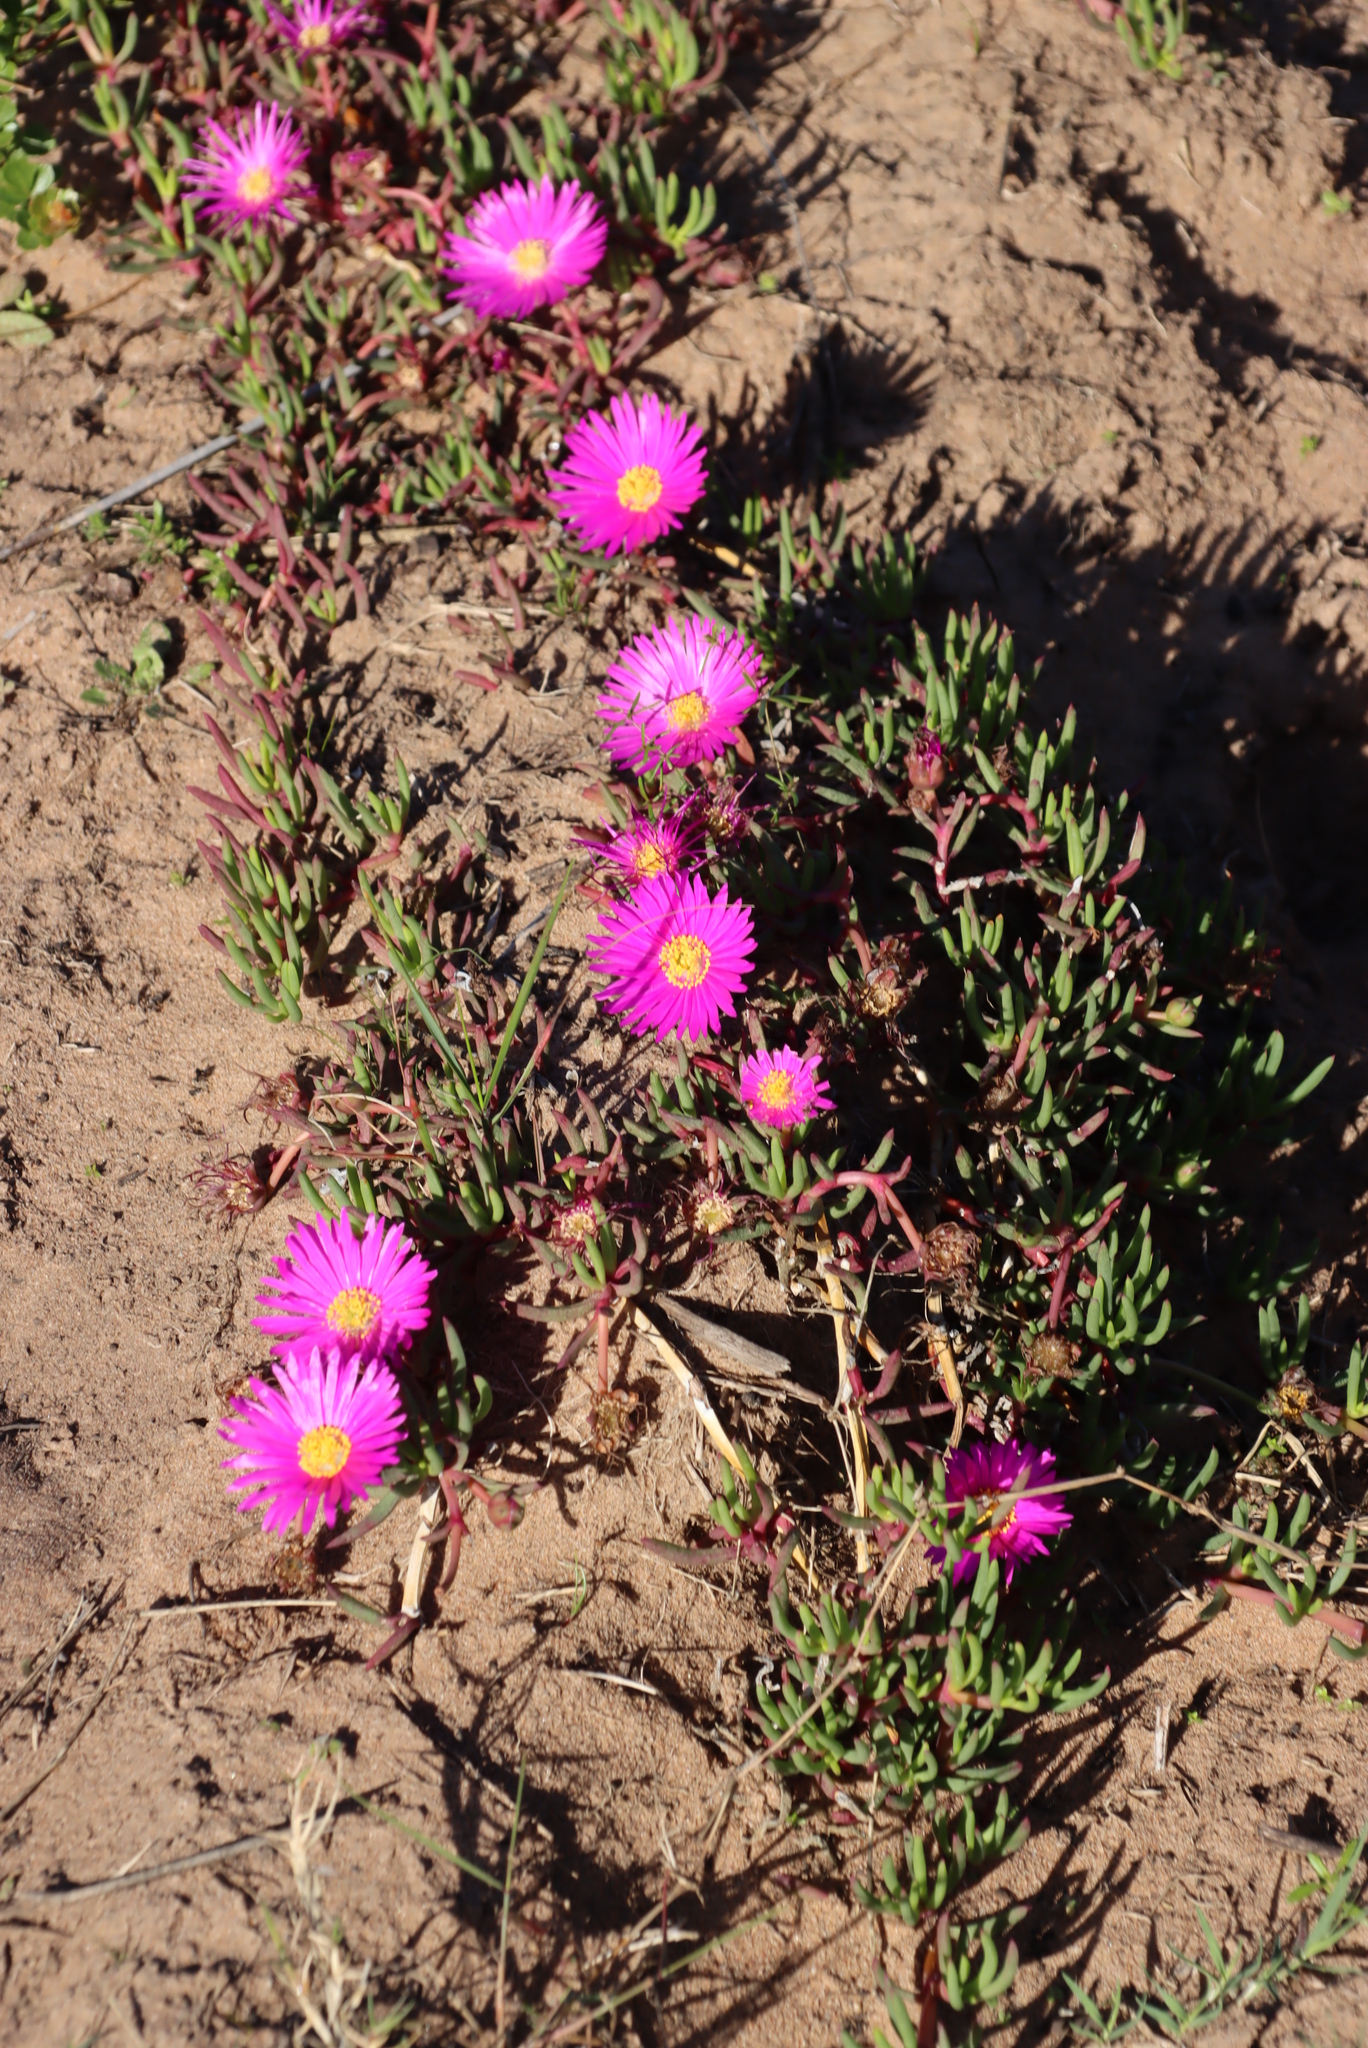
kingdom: Plantae
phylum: Tracheophyta
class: Magnoliopsida
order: Caryophyllales
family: Aizoaceae
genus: Jordaaniella
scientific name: Jordaaniella dubia
